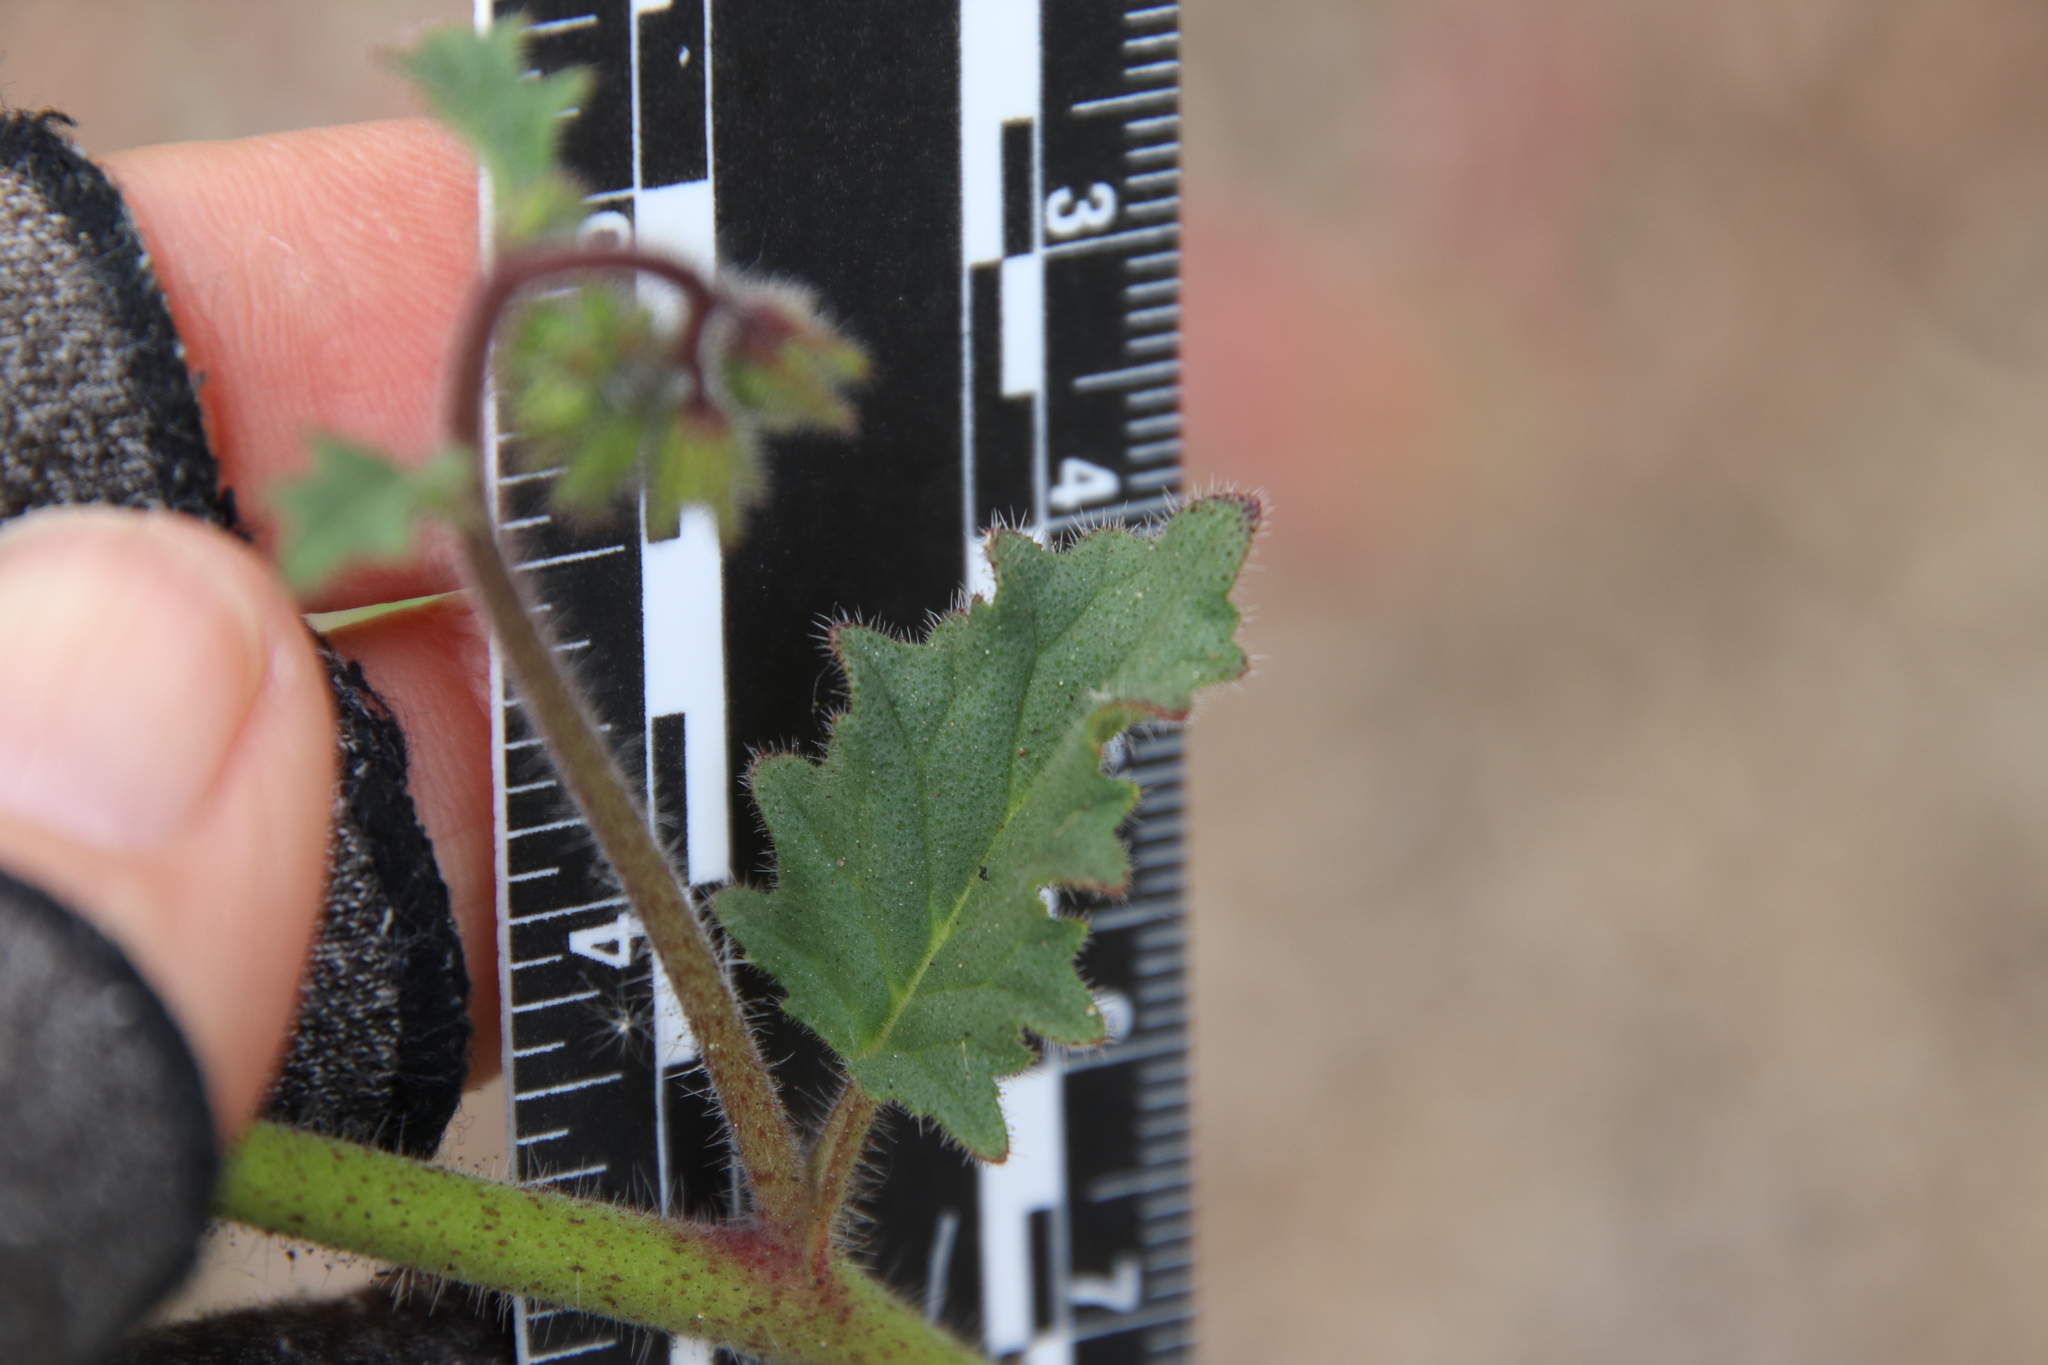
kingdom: Plantae
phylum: Tracheophyta
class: Magnoliopsida
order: Boraginales
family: Hydrophyllaceae
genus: Phacelia
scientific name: Phacelia parryi
